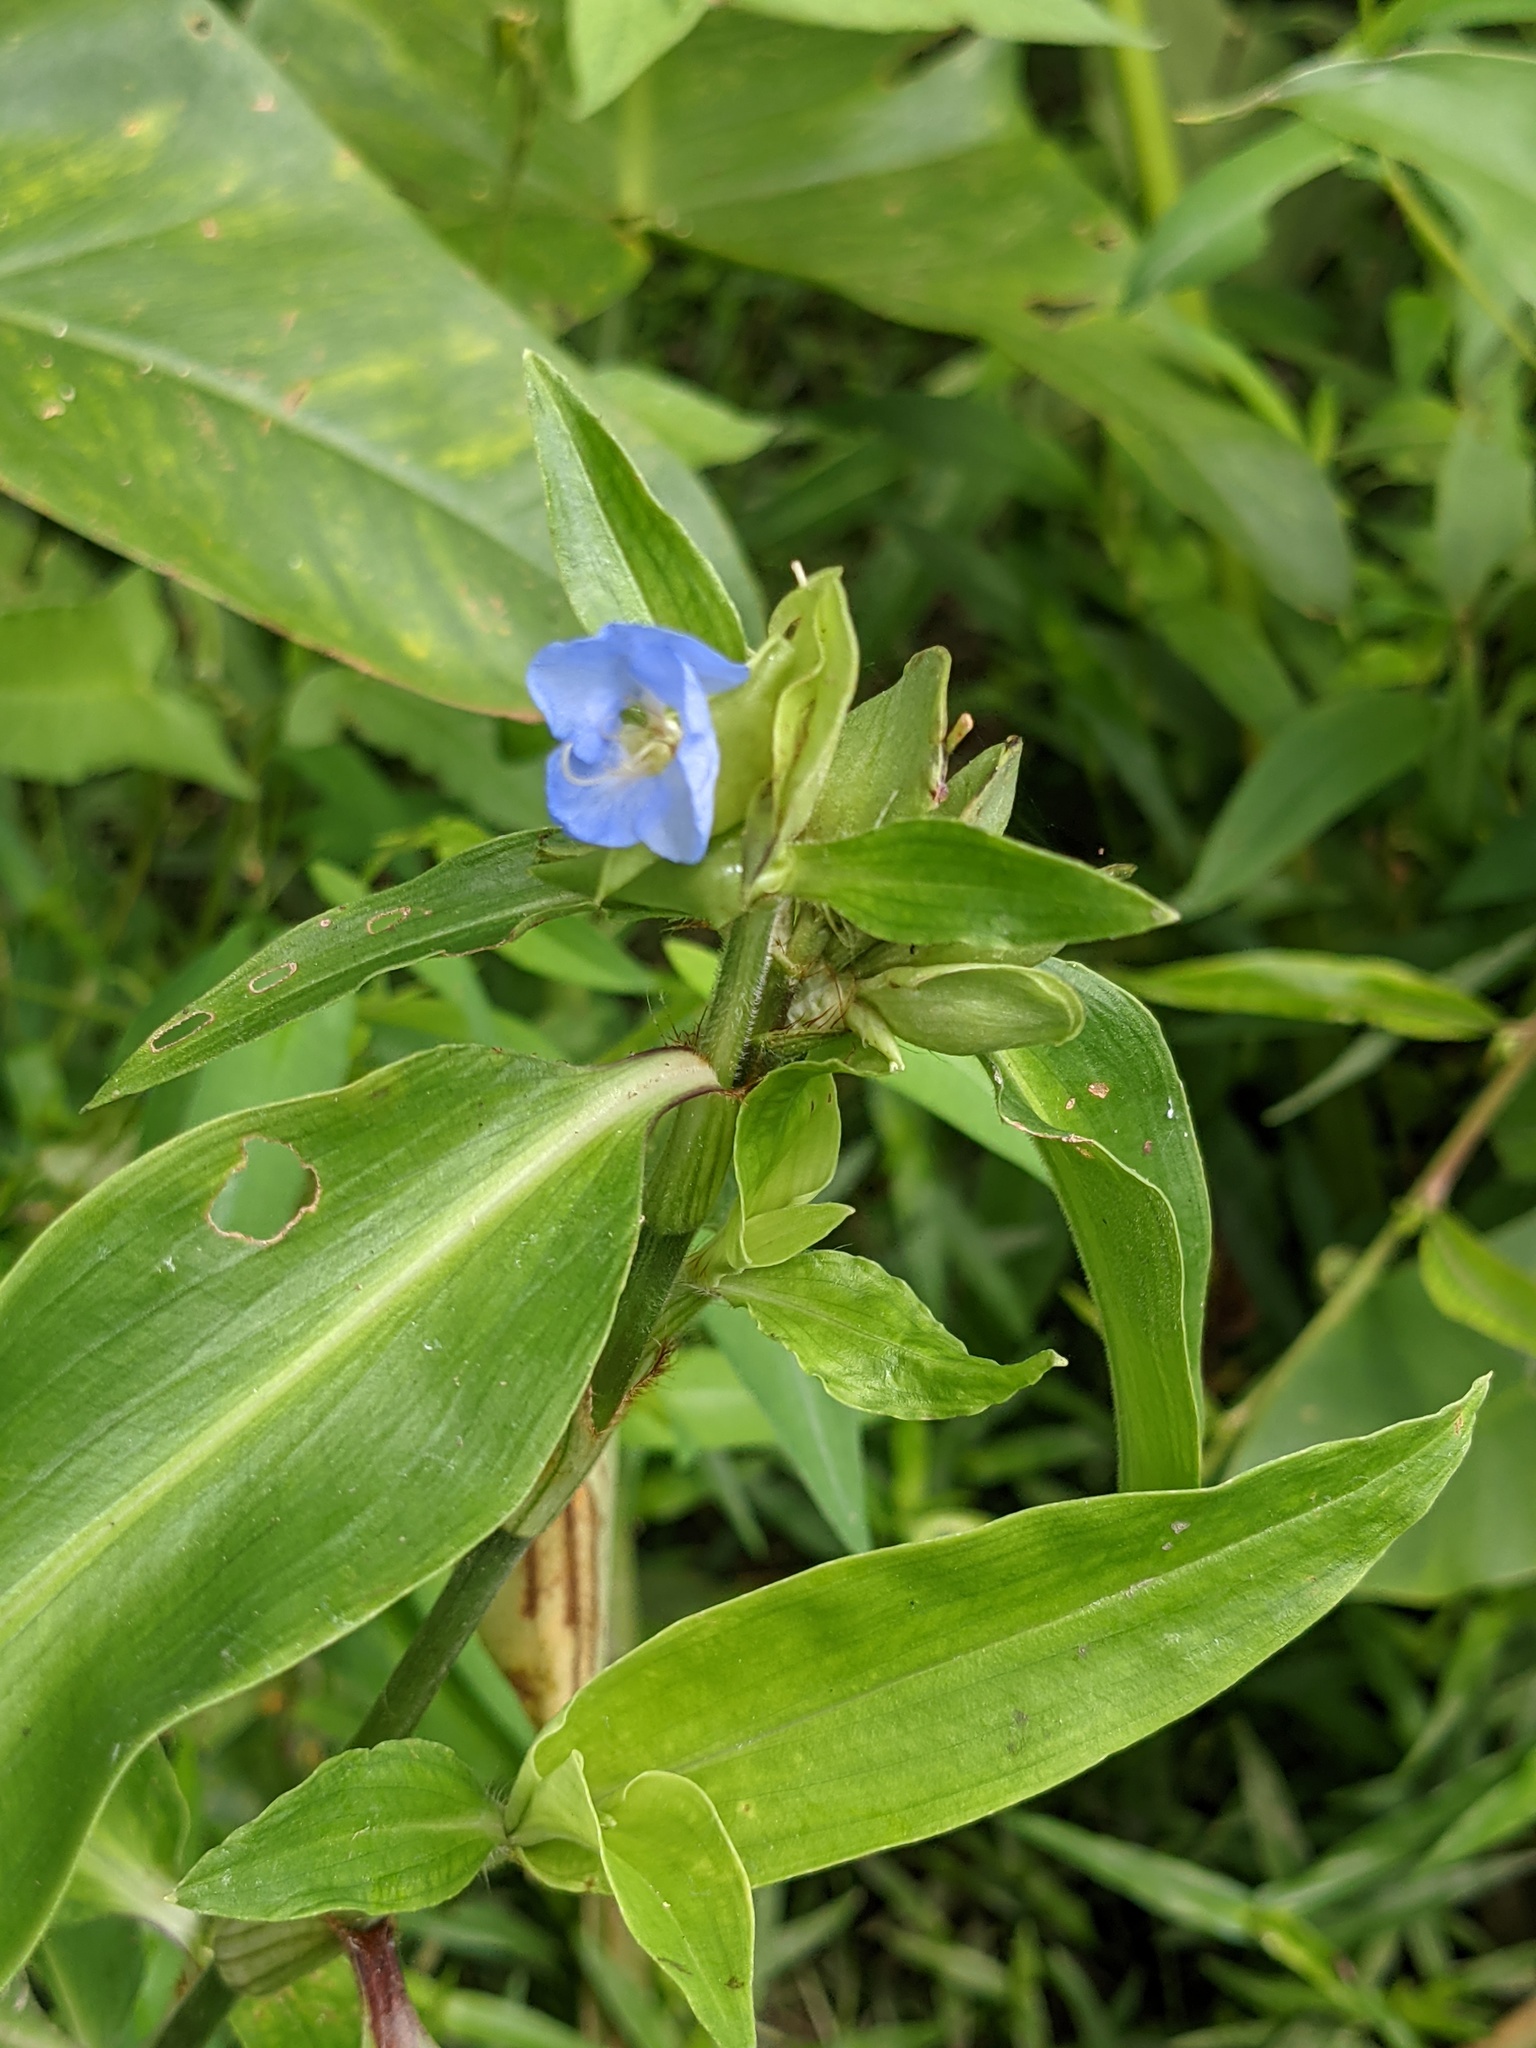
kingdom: Plantae
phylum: Tracheophyta
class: Liliopsida
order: Commelinales
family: Commelinaceae
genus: Commelina
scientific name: Commelina virginica
